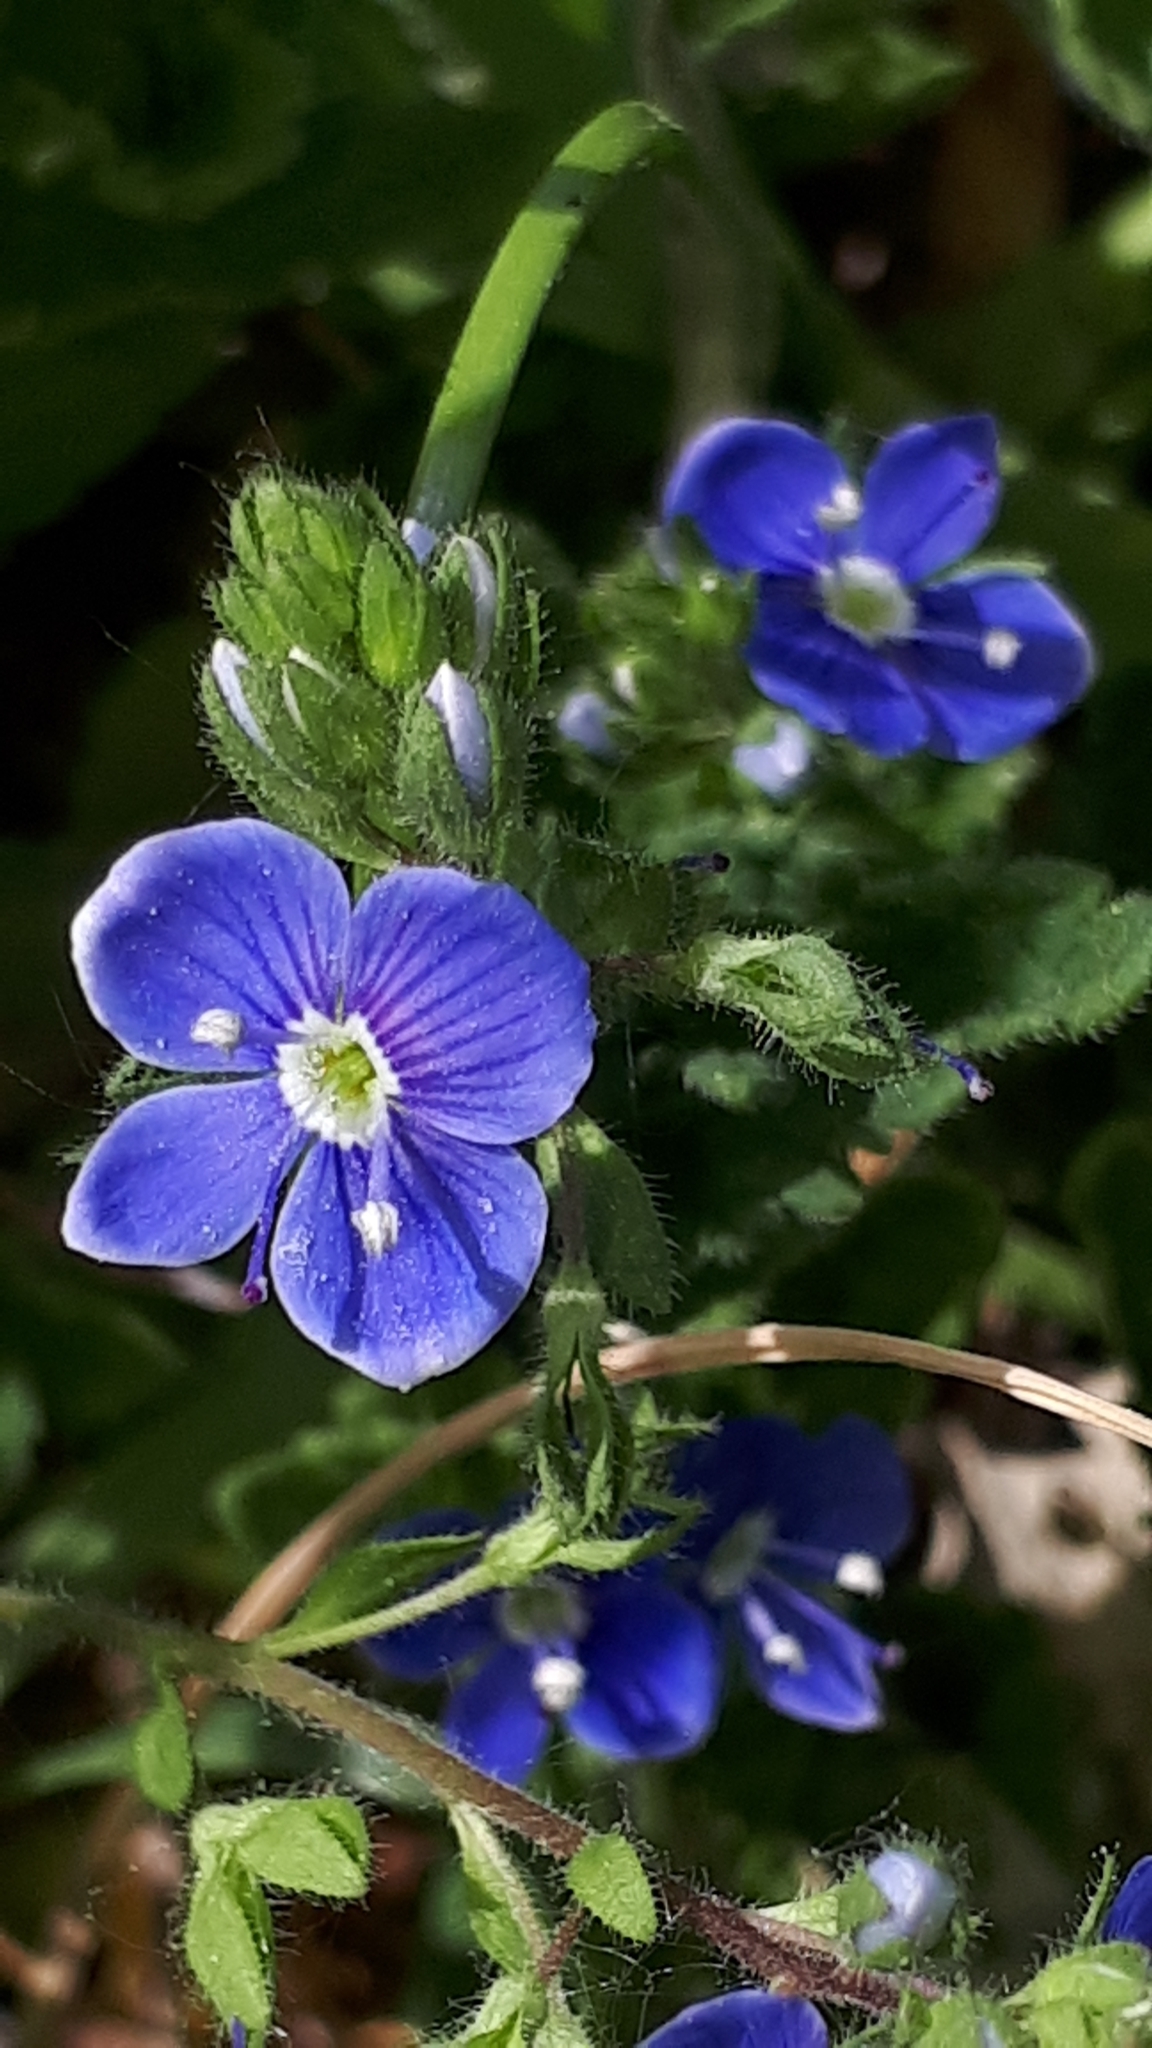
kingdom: Plantae
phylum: Tracheophyta
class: Magnoliopsida
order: Lamiales
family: Plantaginaceae
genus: Veronica
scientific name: Veronica chamaedrys
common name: Germander speedwell
